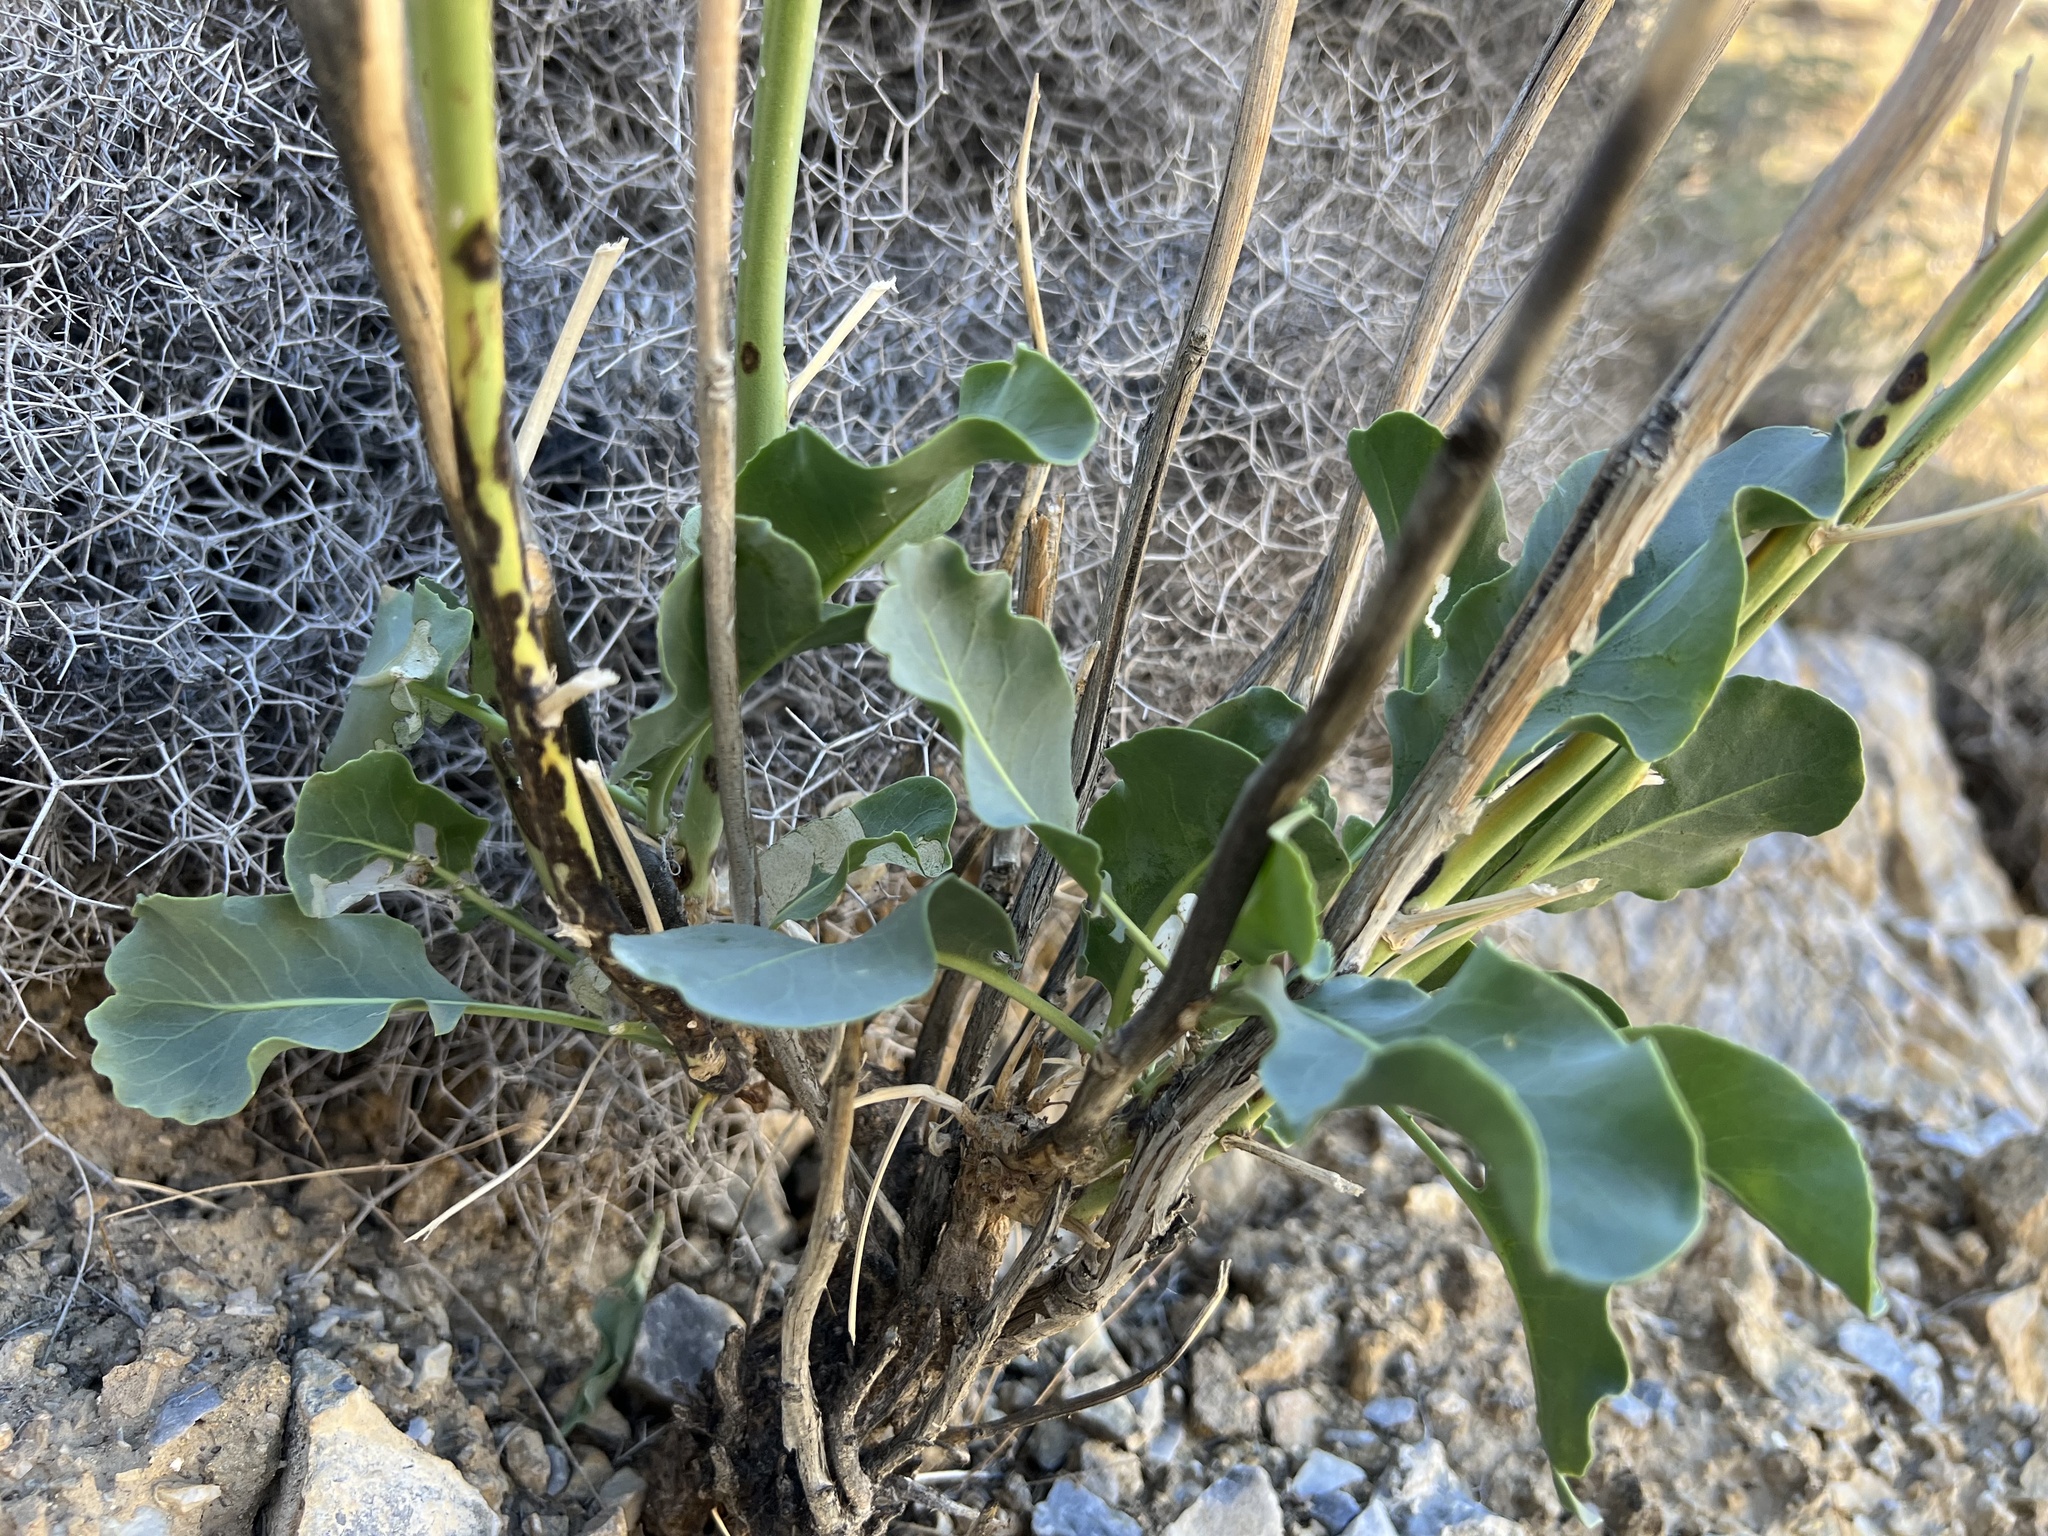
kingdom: Plantae
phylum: Tracheophyta
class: Magnoliopsida
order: Brassicales
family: Brassicaceae
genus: Stanleya
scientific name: Stanleya elata
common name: Panamint prince's plume
